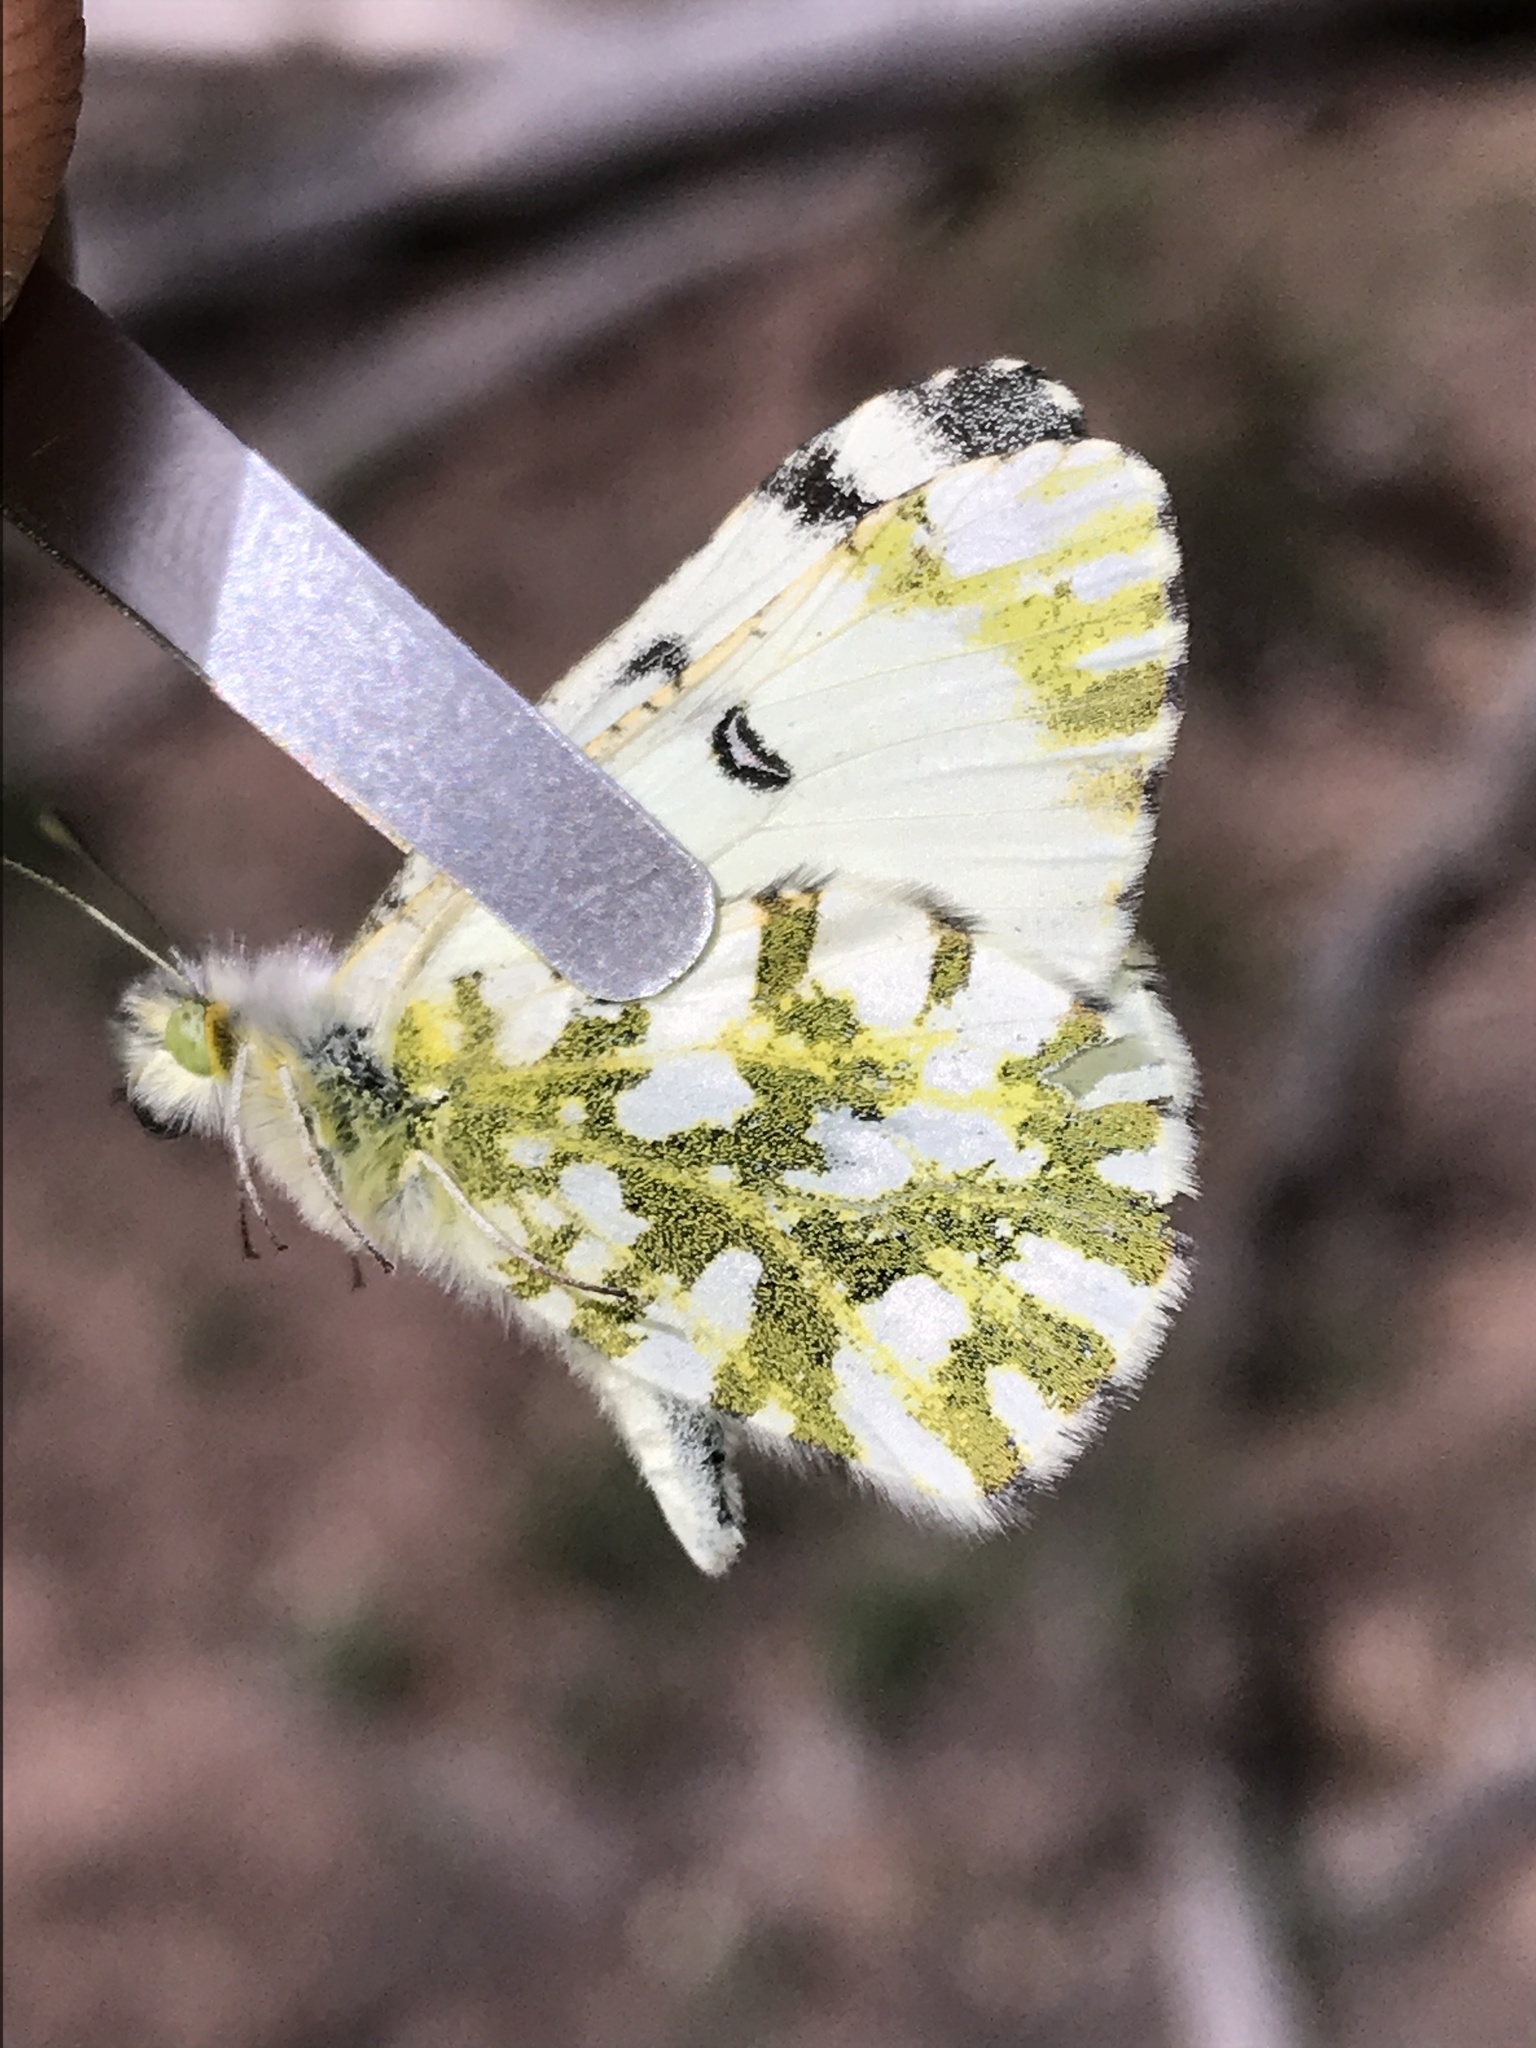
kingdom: Animalia
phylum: Arthropoda
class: Insecta
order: Lepidoptera
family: Pieridae
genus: Euchloe
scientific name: Euchloe ausonides
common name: Creamy marblewing
